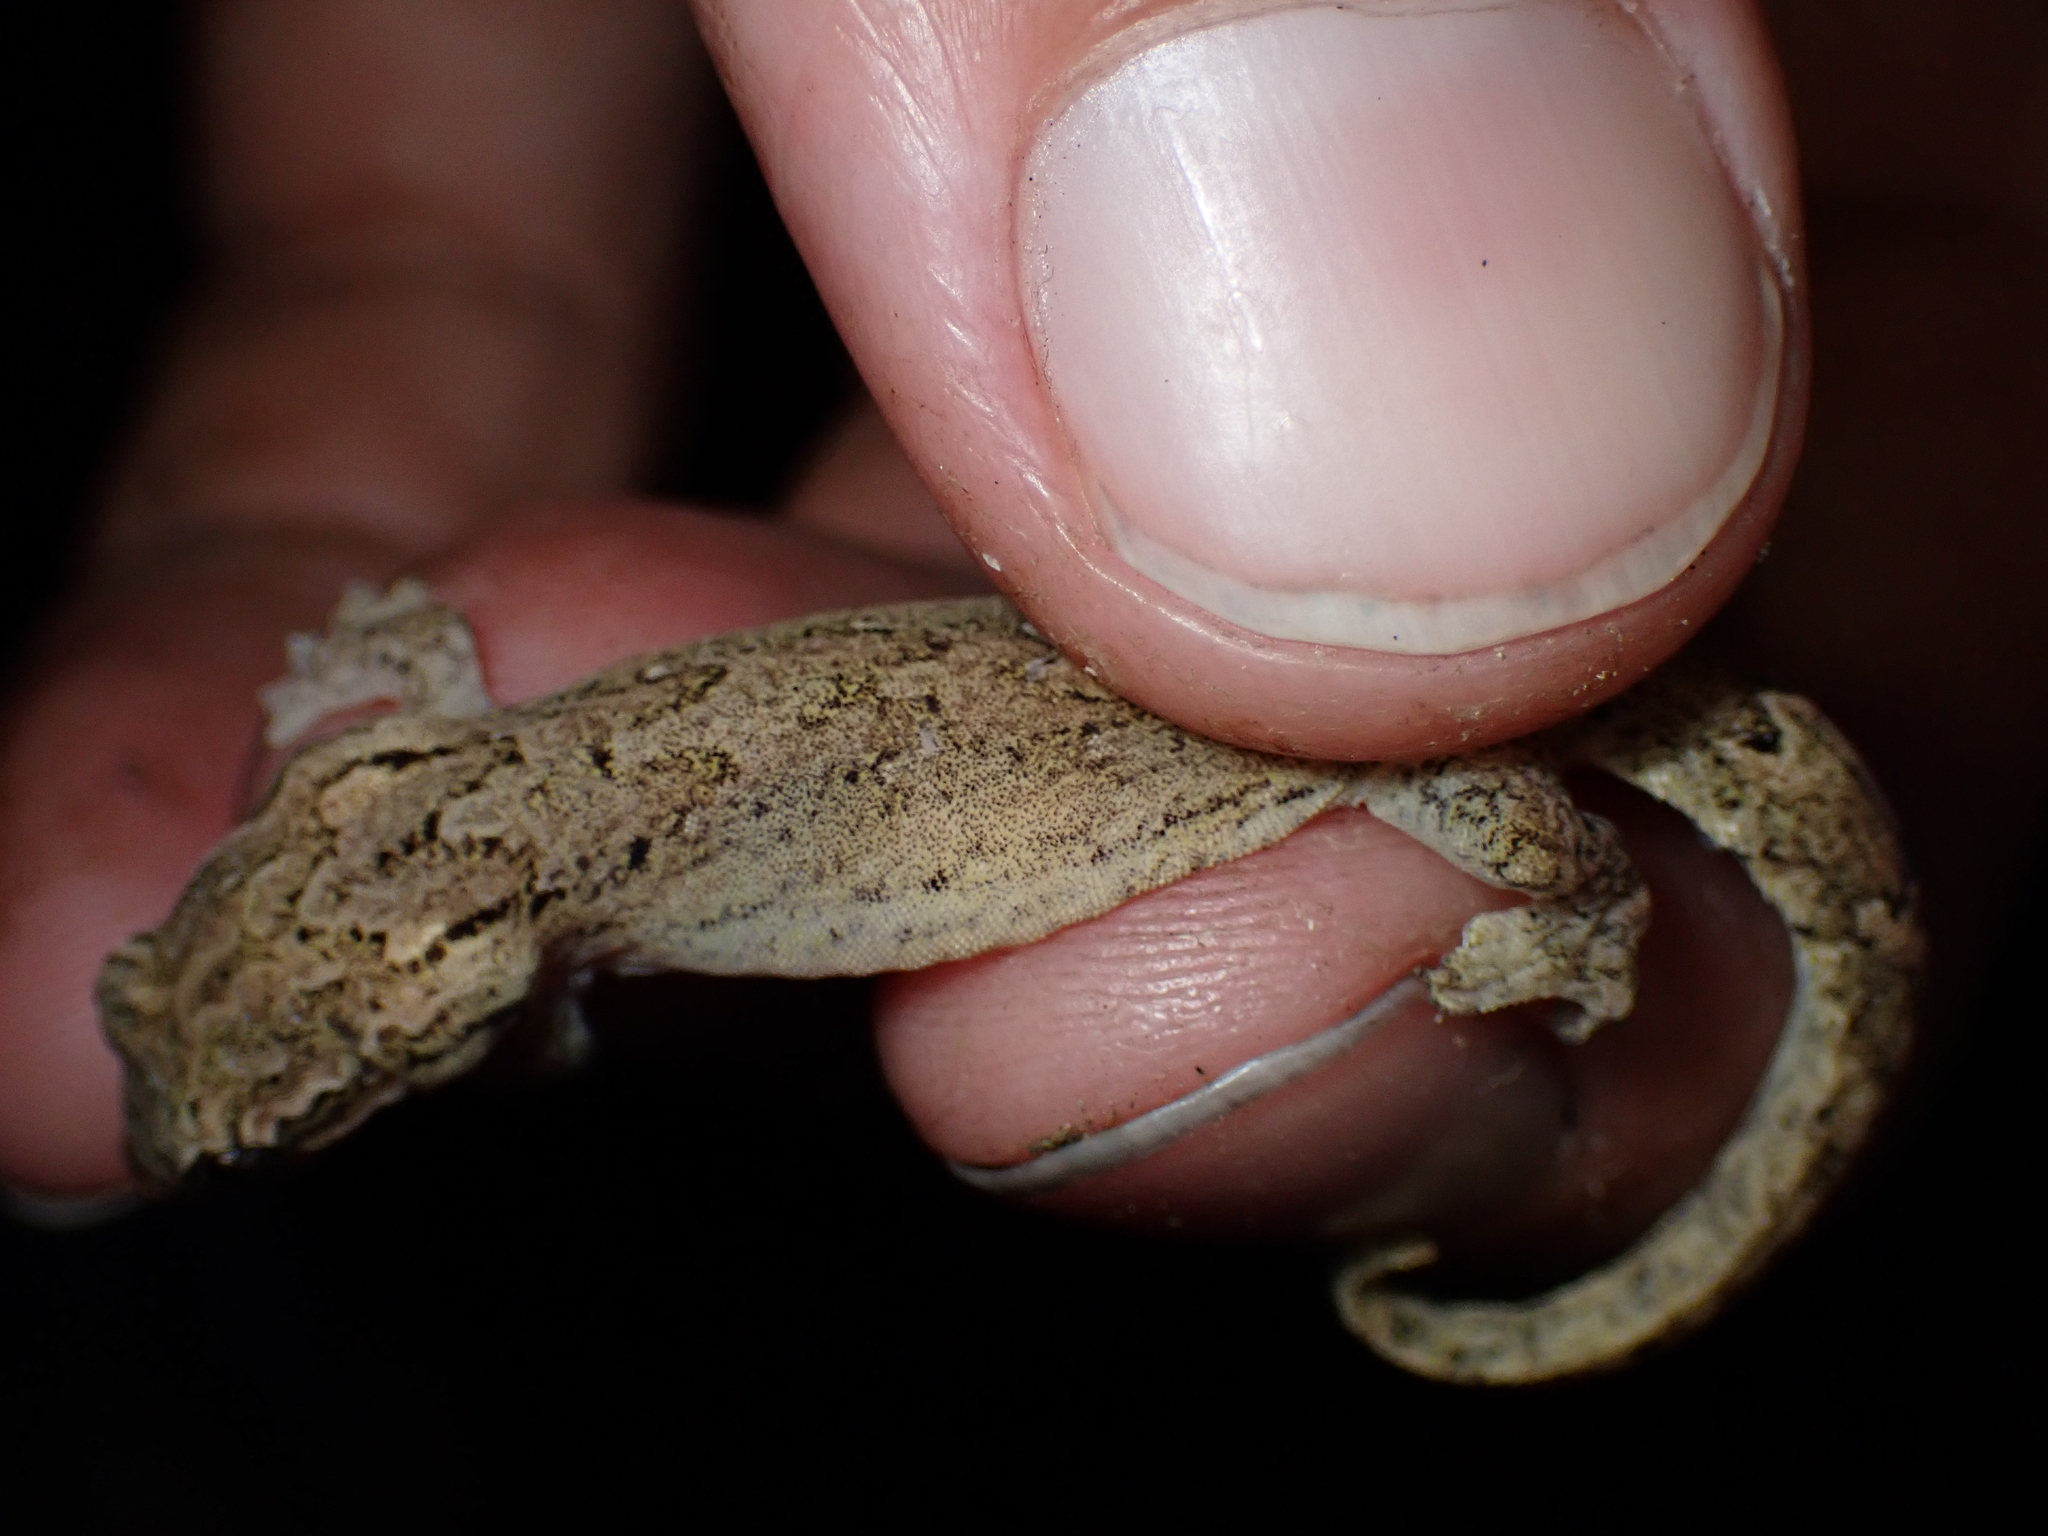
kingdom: Animalia
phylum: Chordata
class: Squamata
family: Gekkonidae
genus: Lepidodactylus
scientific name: Lepidodactylus lugubris
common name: Mourning gecko
